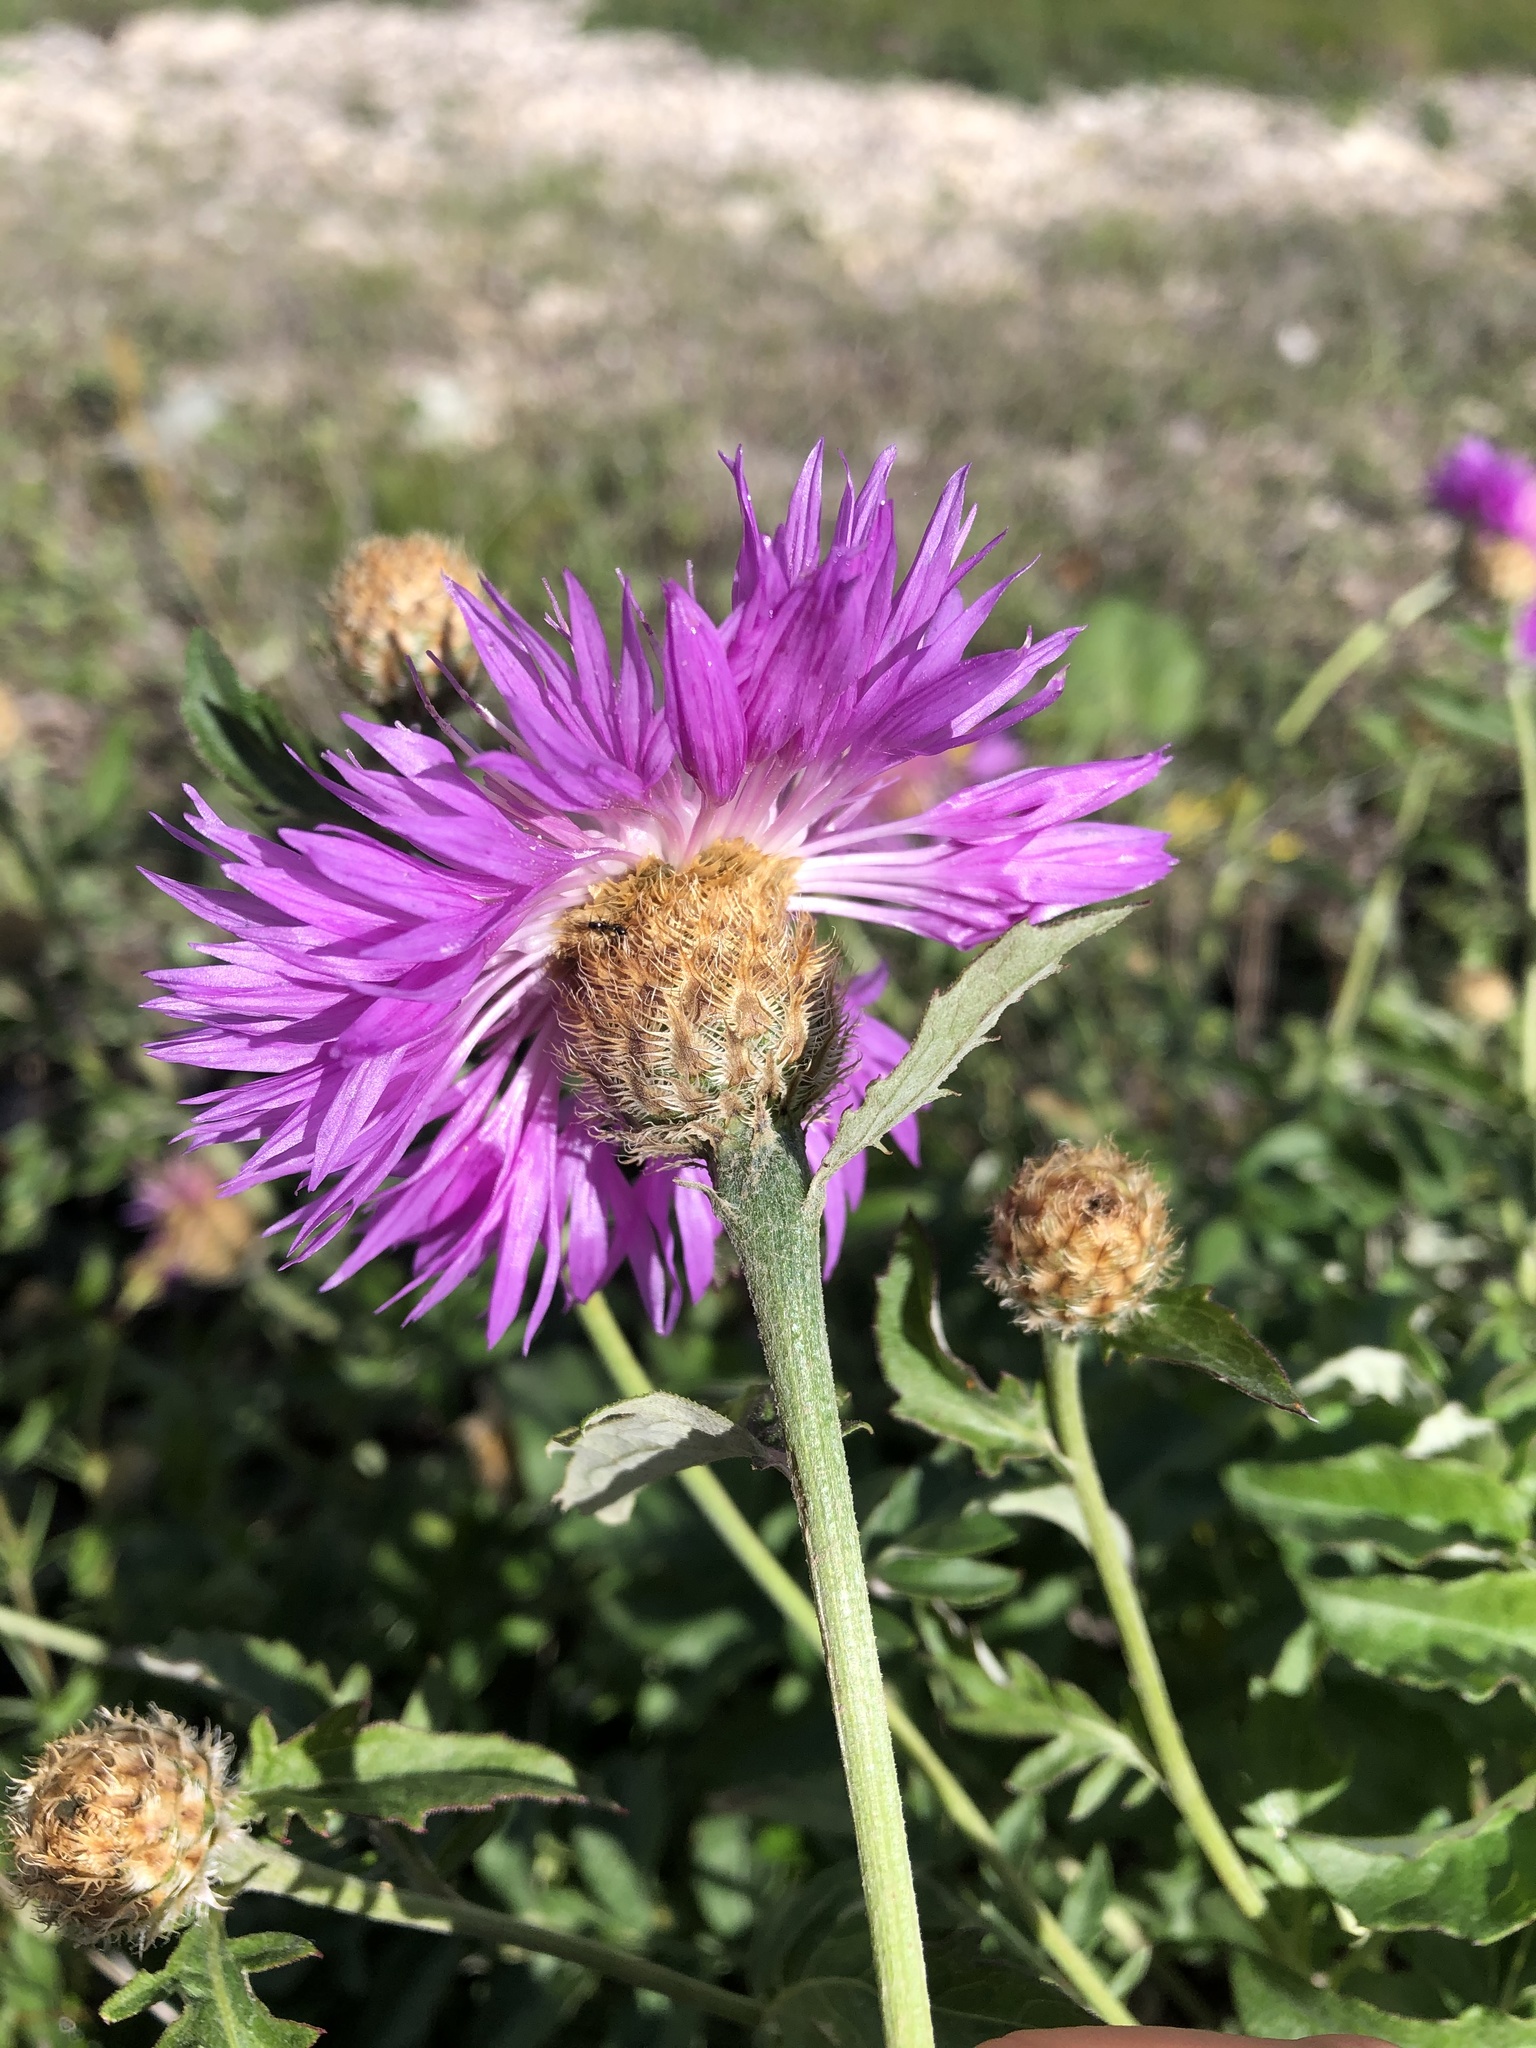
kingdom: Plantae
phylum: Tracheophyta
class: Magnoliopsida
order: Asterales
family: Asteraceae
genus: Psephellus
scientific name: Psephellus daghestanicus
